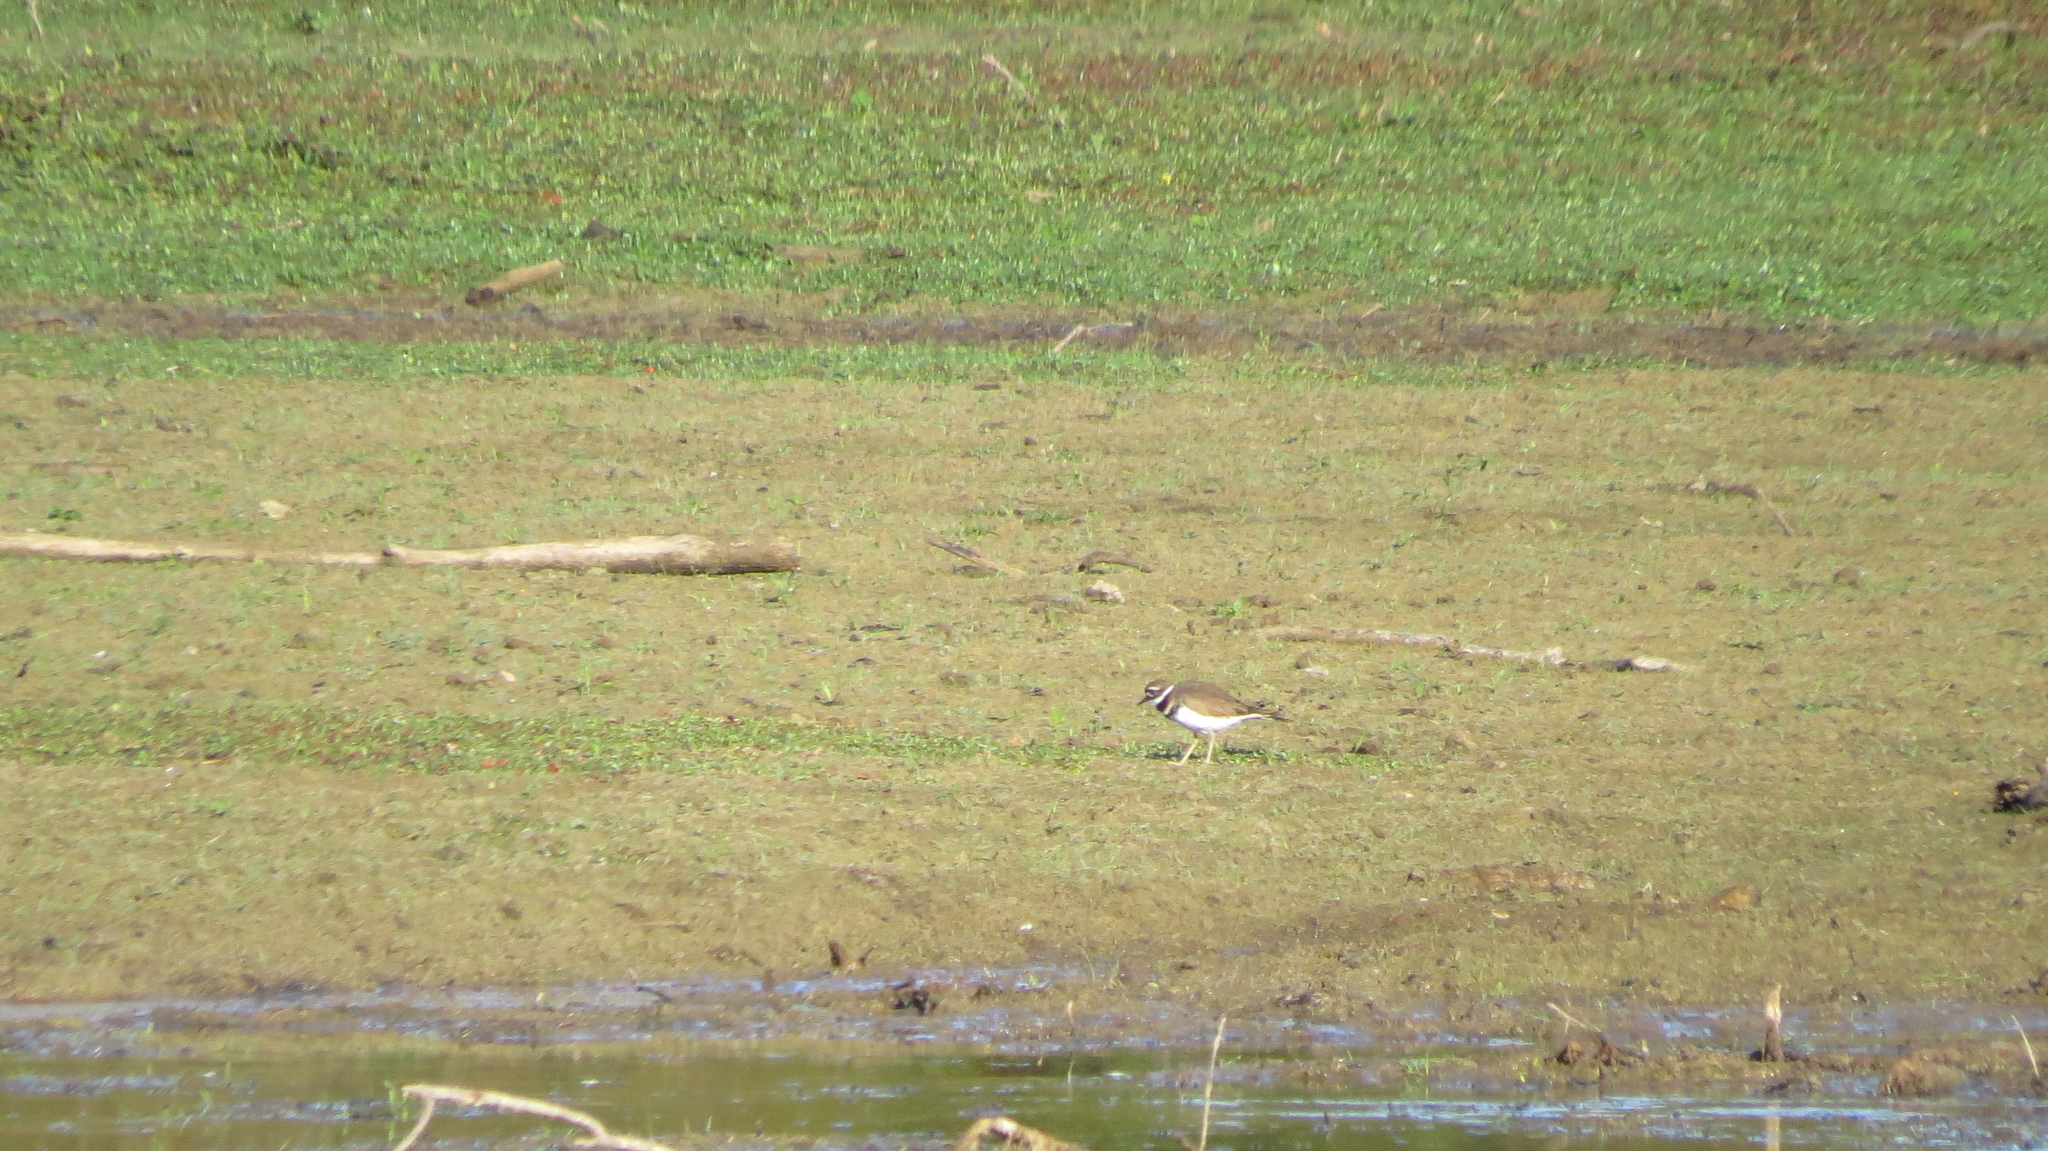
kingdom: Animalia
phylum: Chordata
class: Aves
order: Charadriiformes
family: Charadriidae
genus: Charadrius
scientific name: Charadrius vociferus
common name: Killdeer
